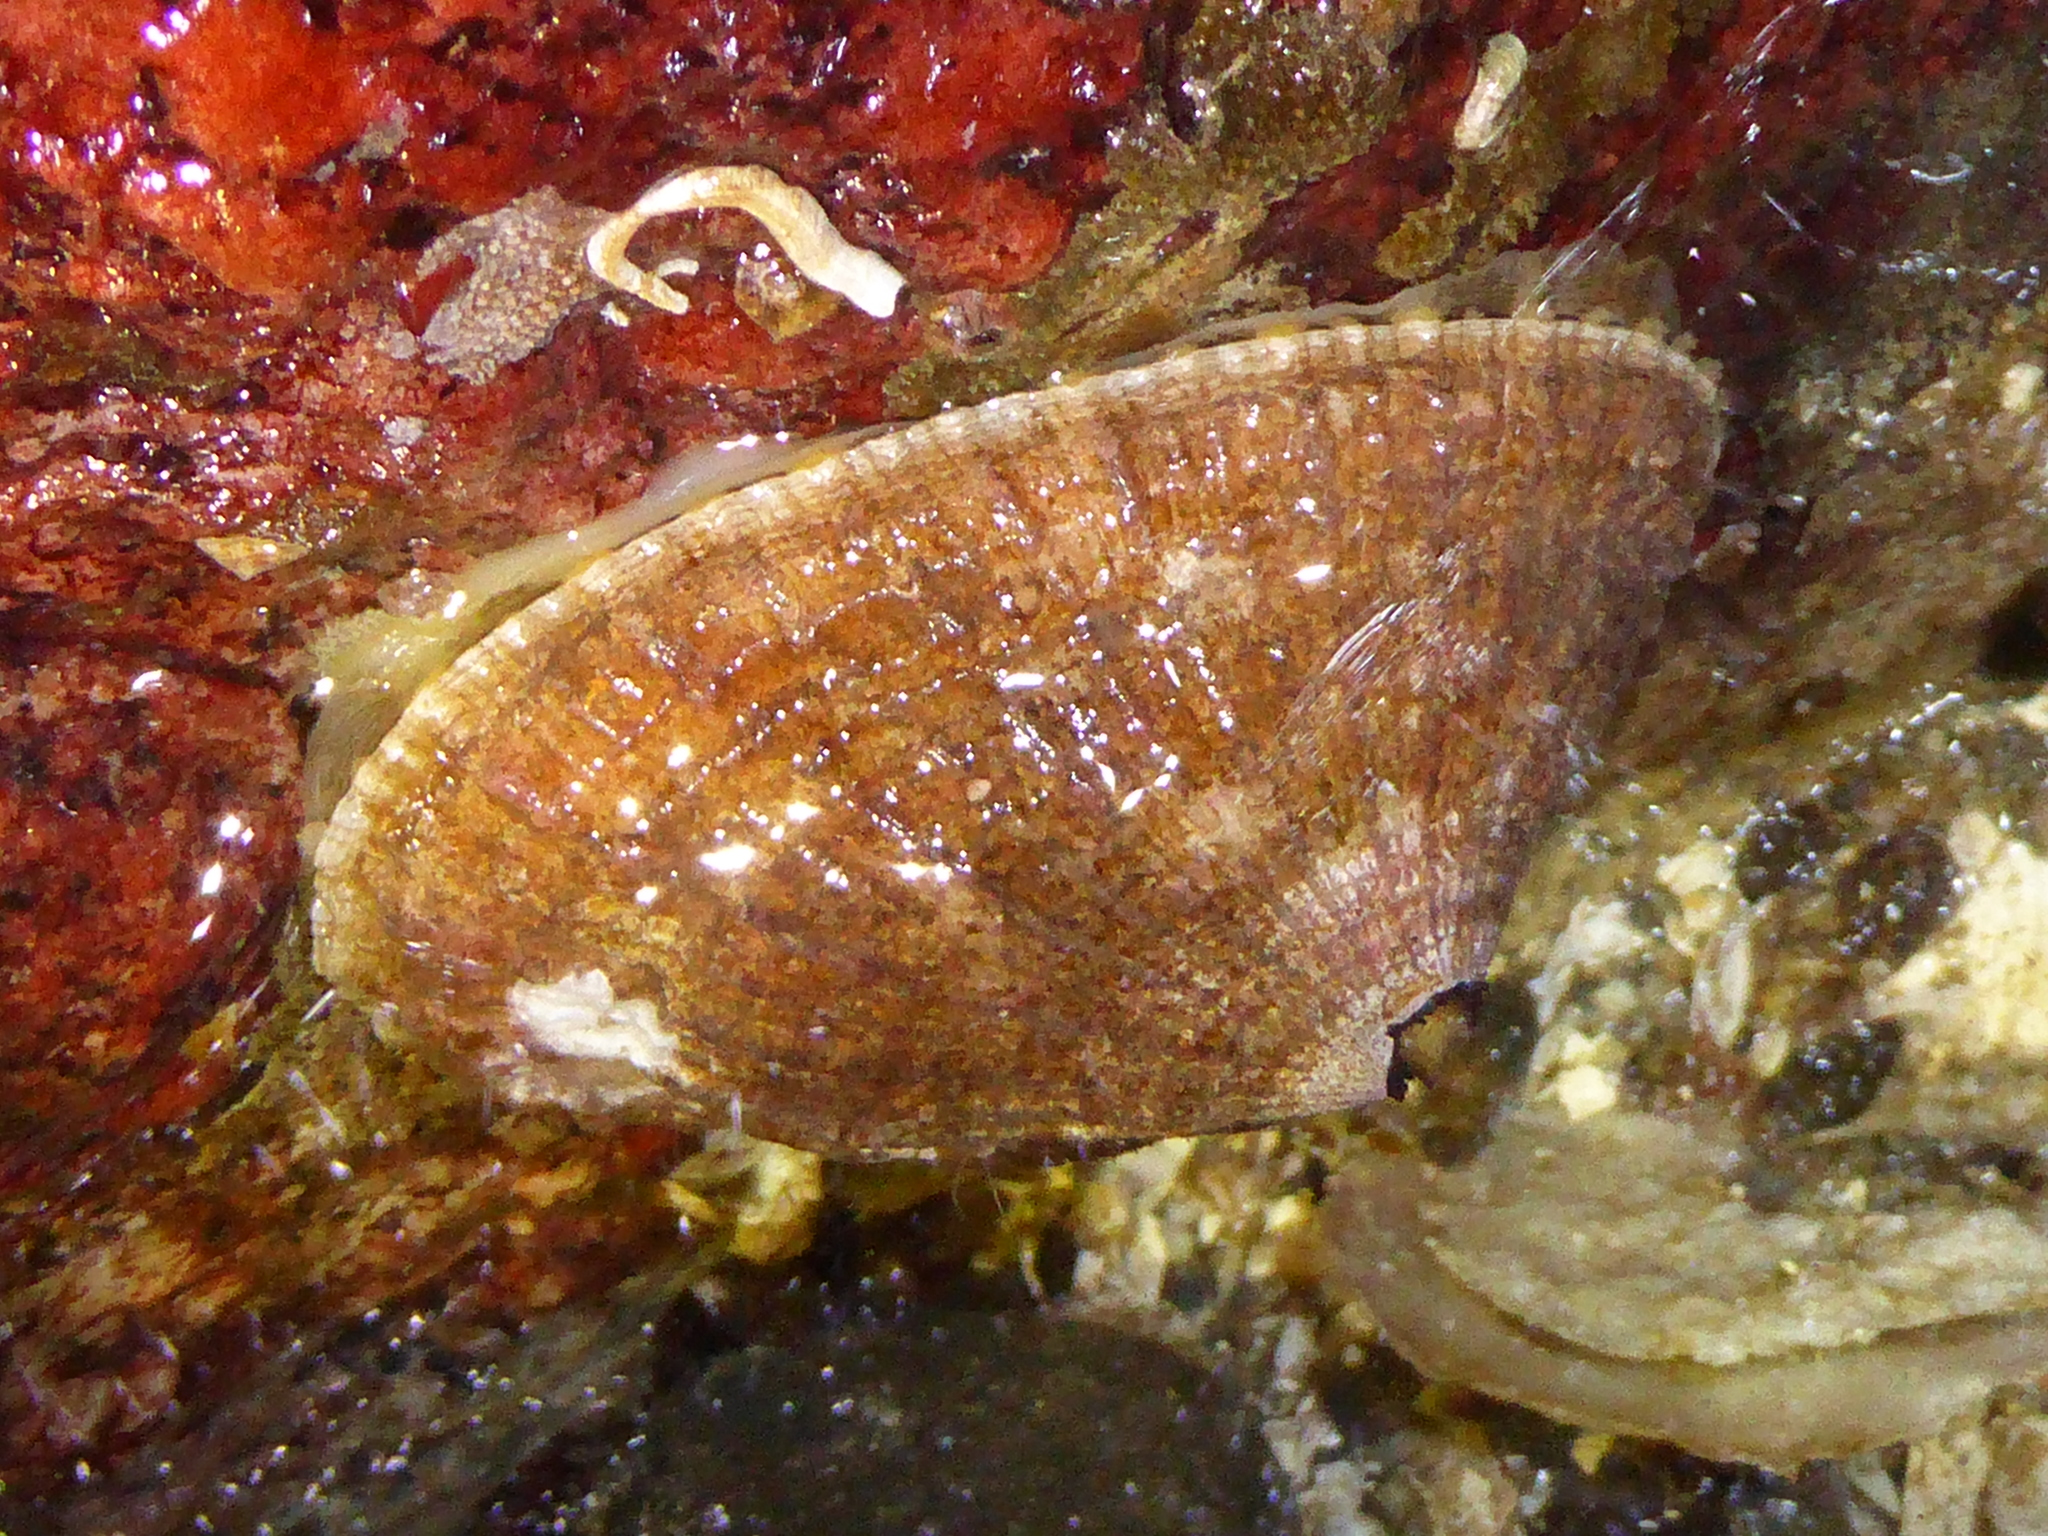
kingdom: Animalia
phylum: Mollusca
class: Gastropoda
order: Lepetellida
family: Fissurellidae
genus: Diodora
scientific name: Diodora aspera
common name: Rough keyhole limpet
